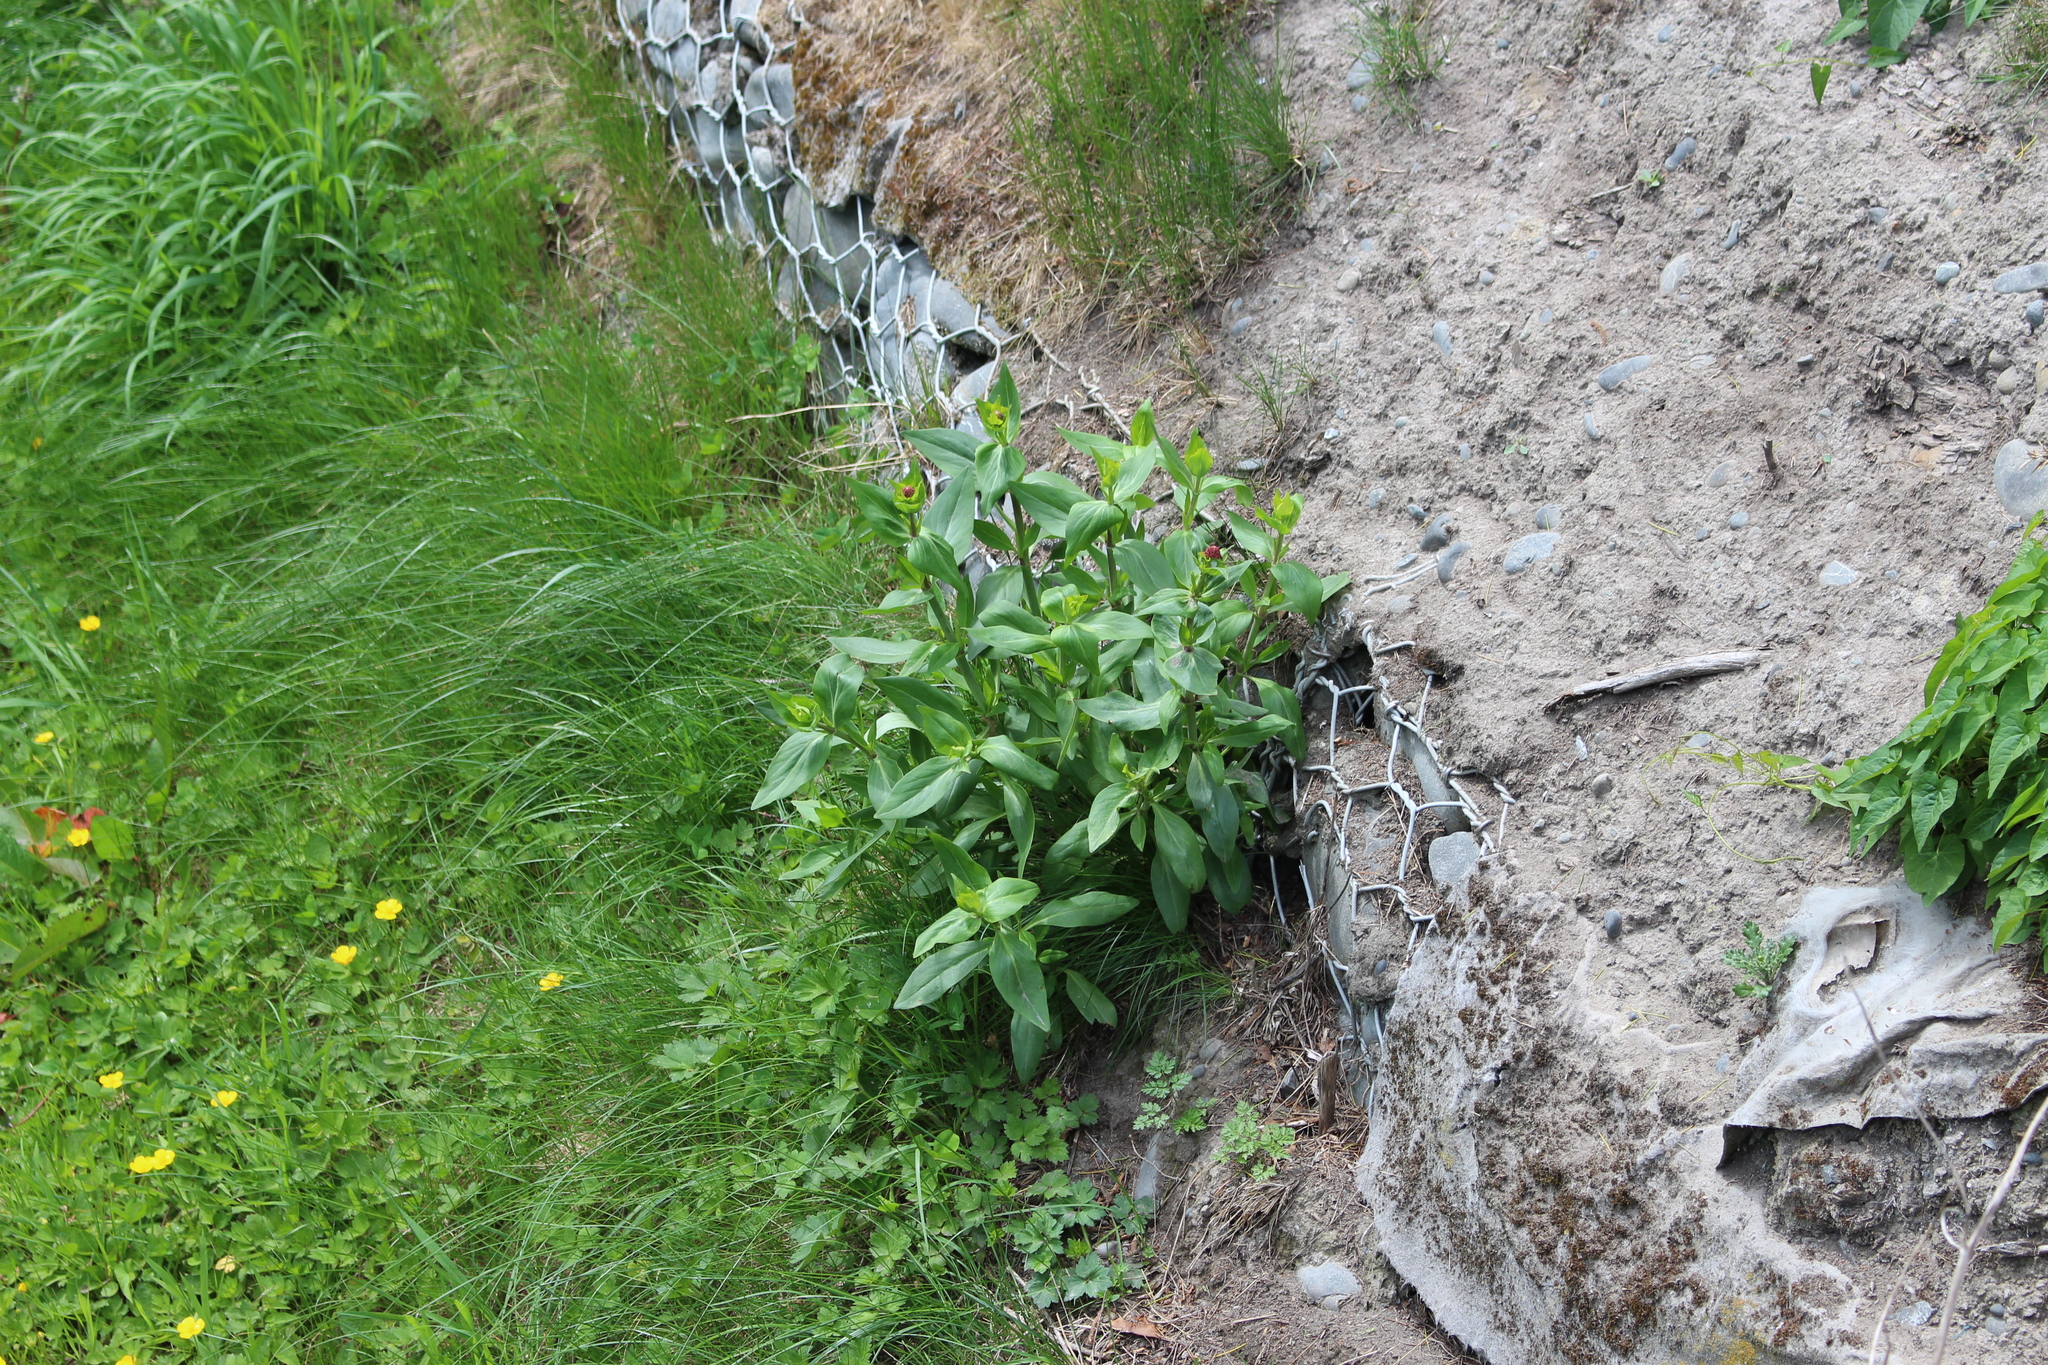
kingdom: Plantae
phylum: Tracheophyta
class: Magnoliopsida
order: Dipsacales
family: Caprifoliaceae
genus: Centranthus
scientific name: Centranthus ruber
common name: Red valerian
